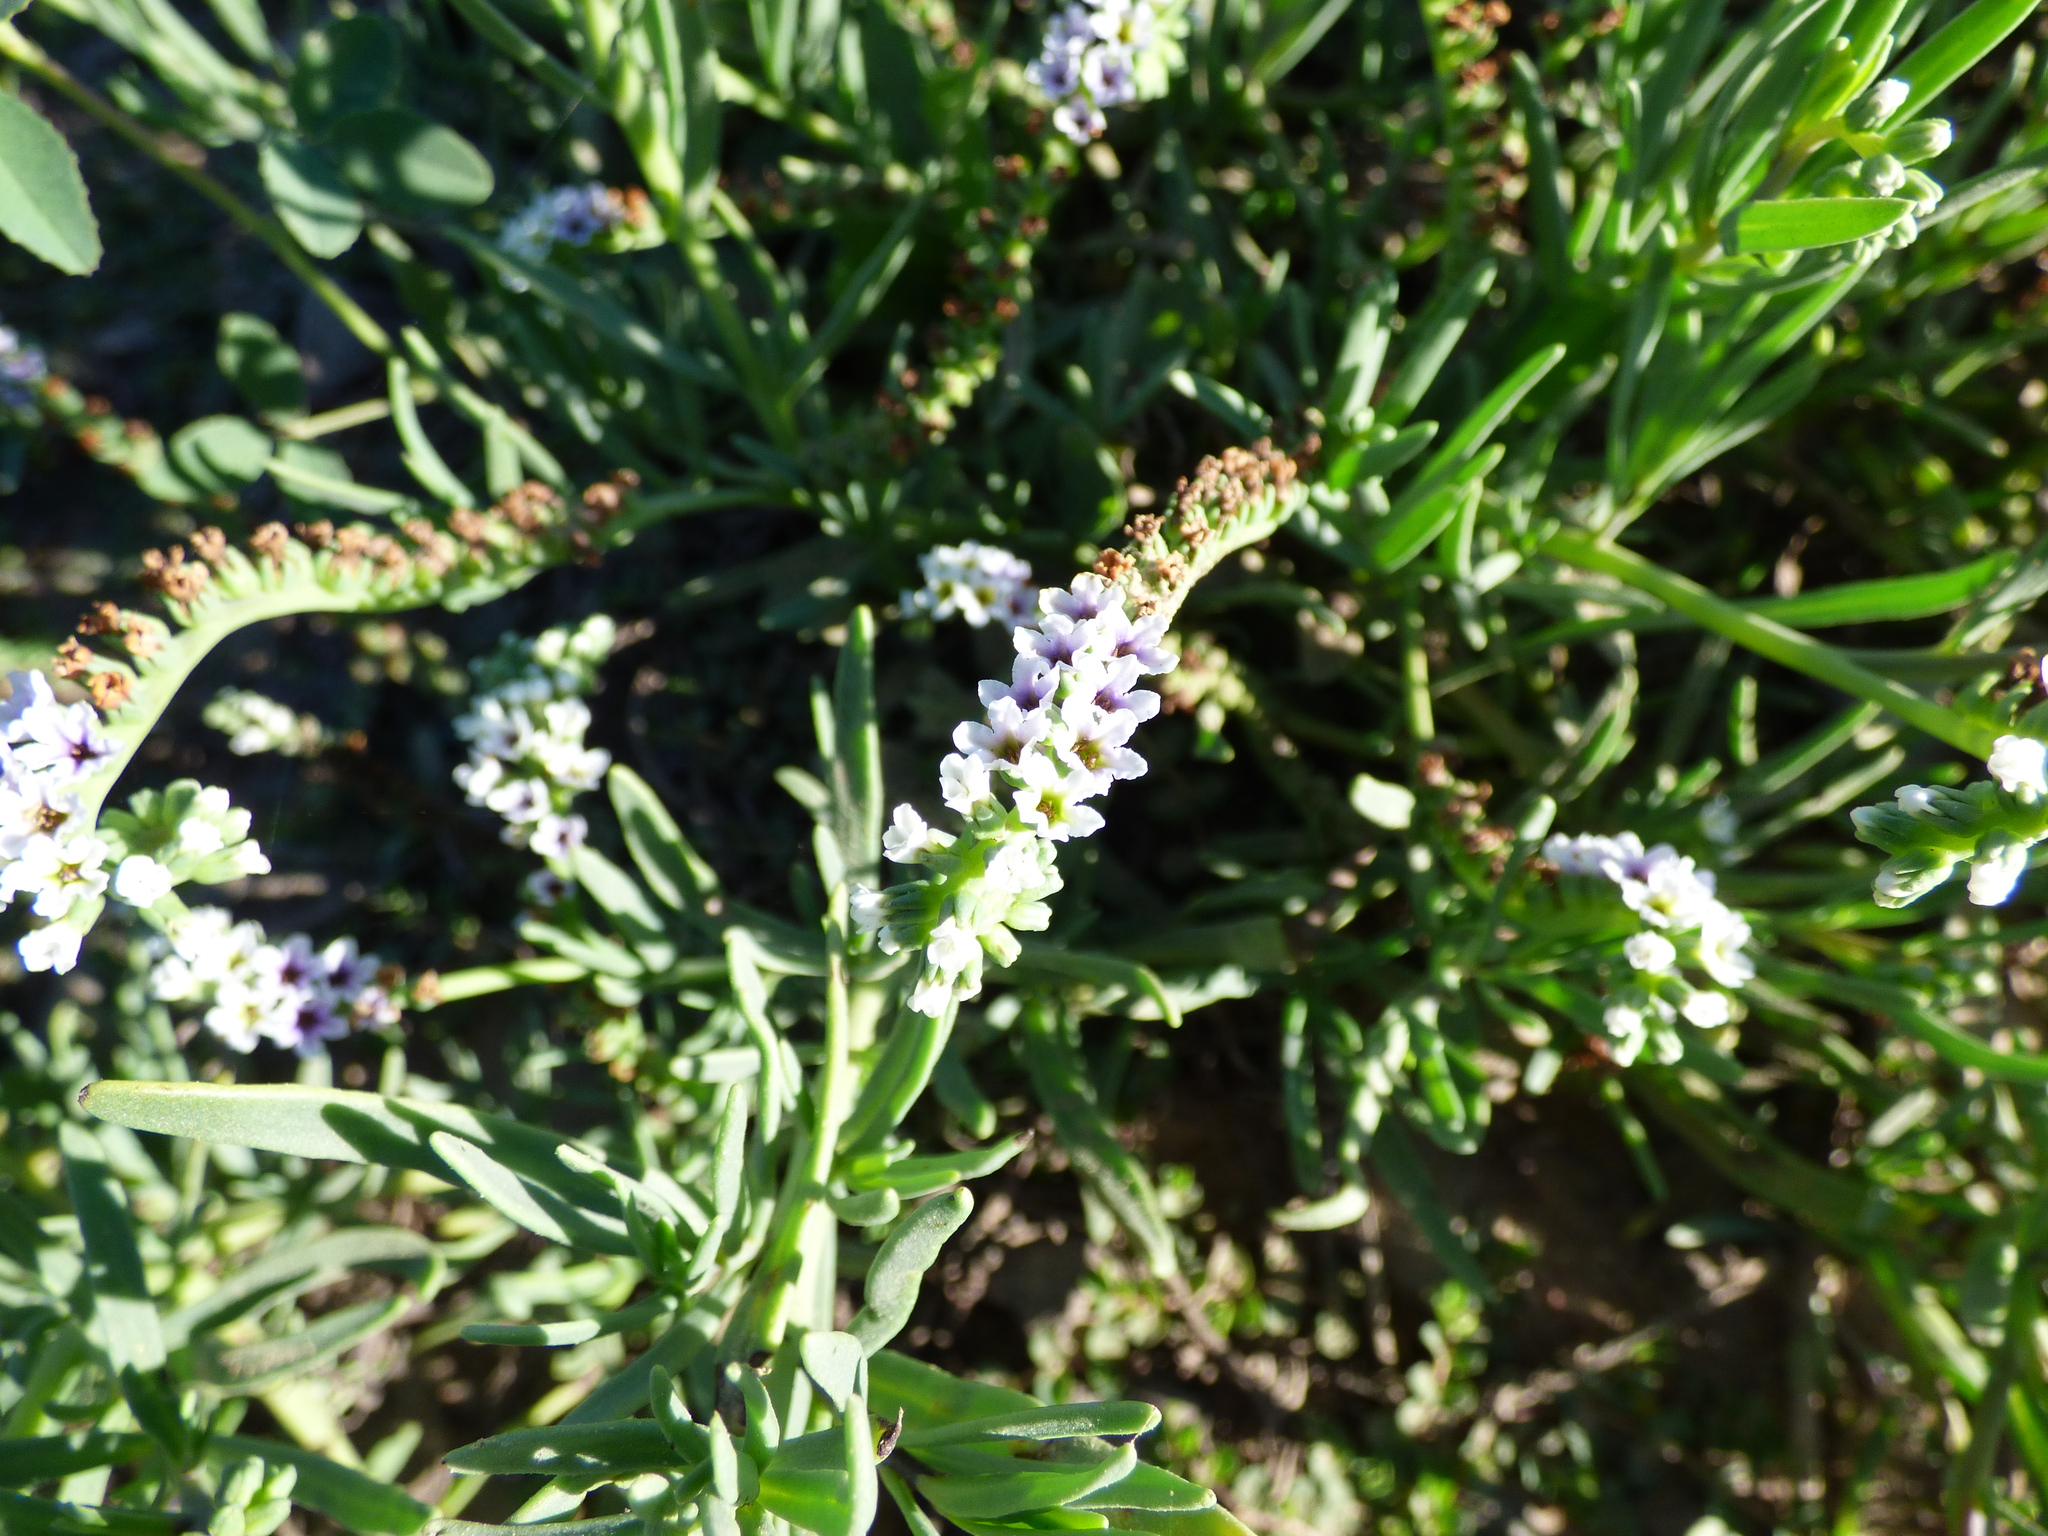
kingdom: Plantae
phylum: Tracheophyta
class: Magnoliopsida
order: Boraginales
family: Heliotropiaceae
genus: Heliotropium
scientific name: Heliotropium curassavicum
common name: Seaside heliotrope
